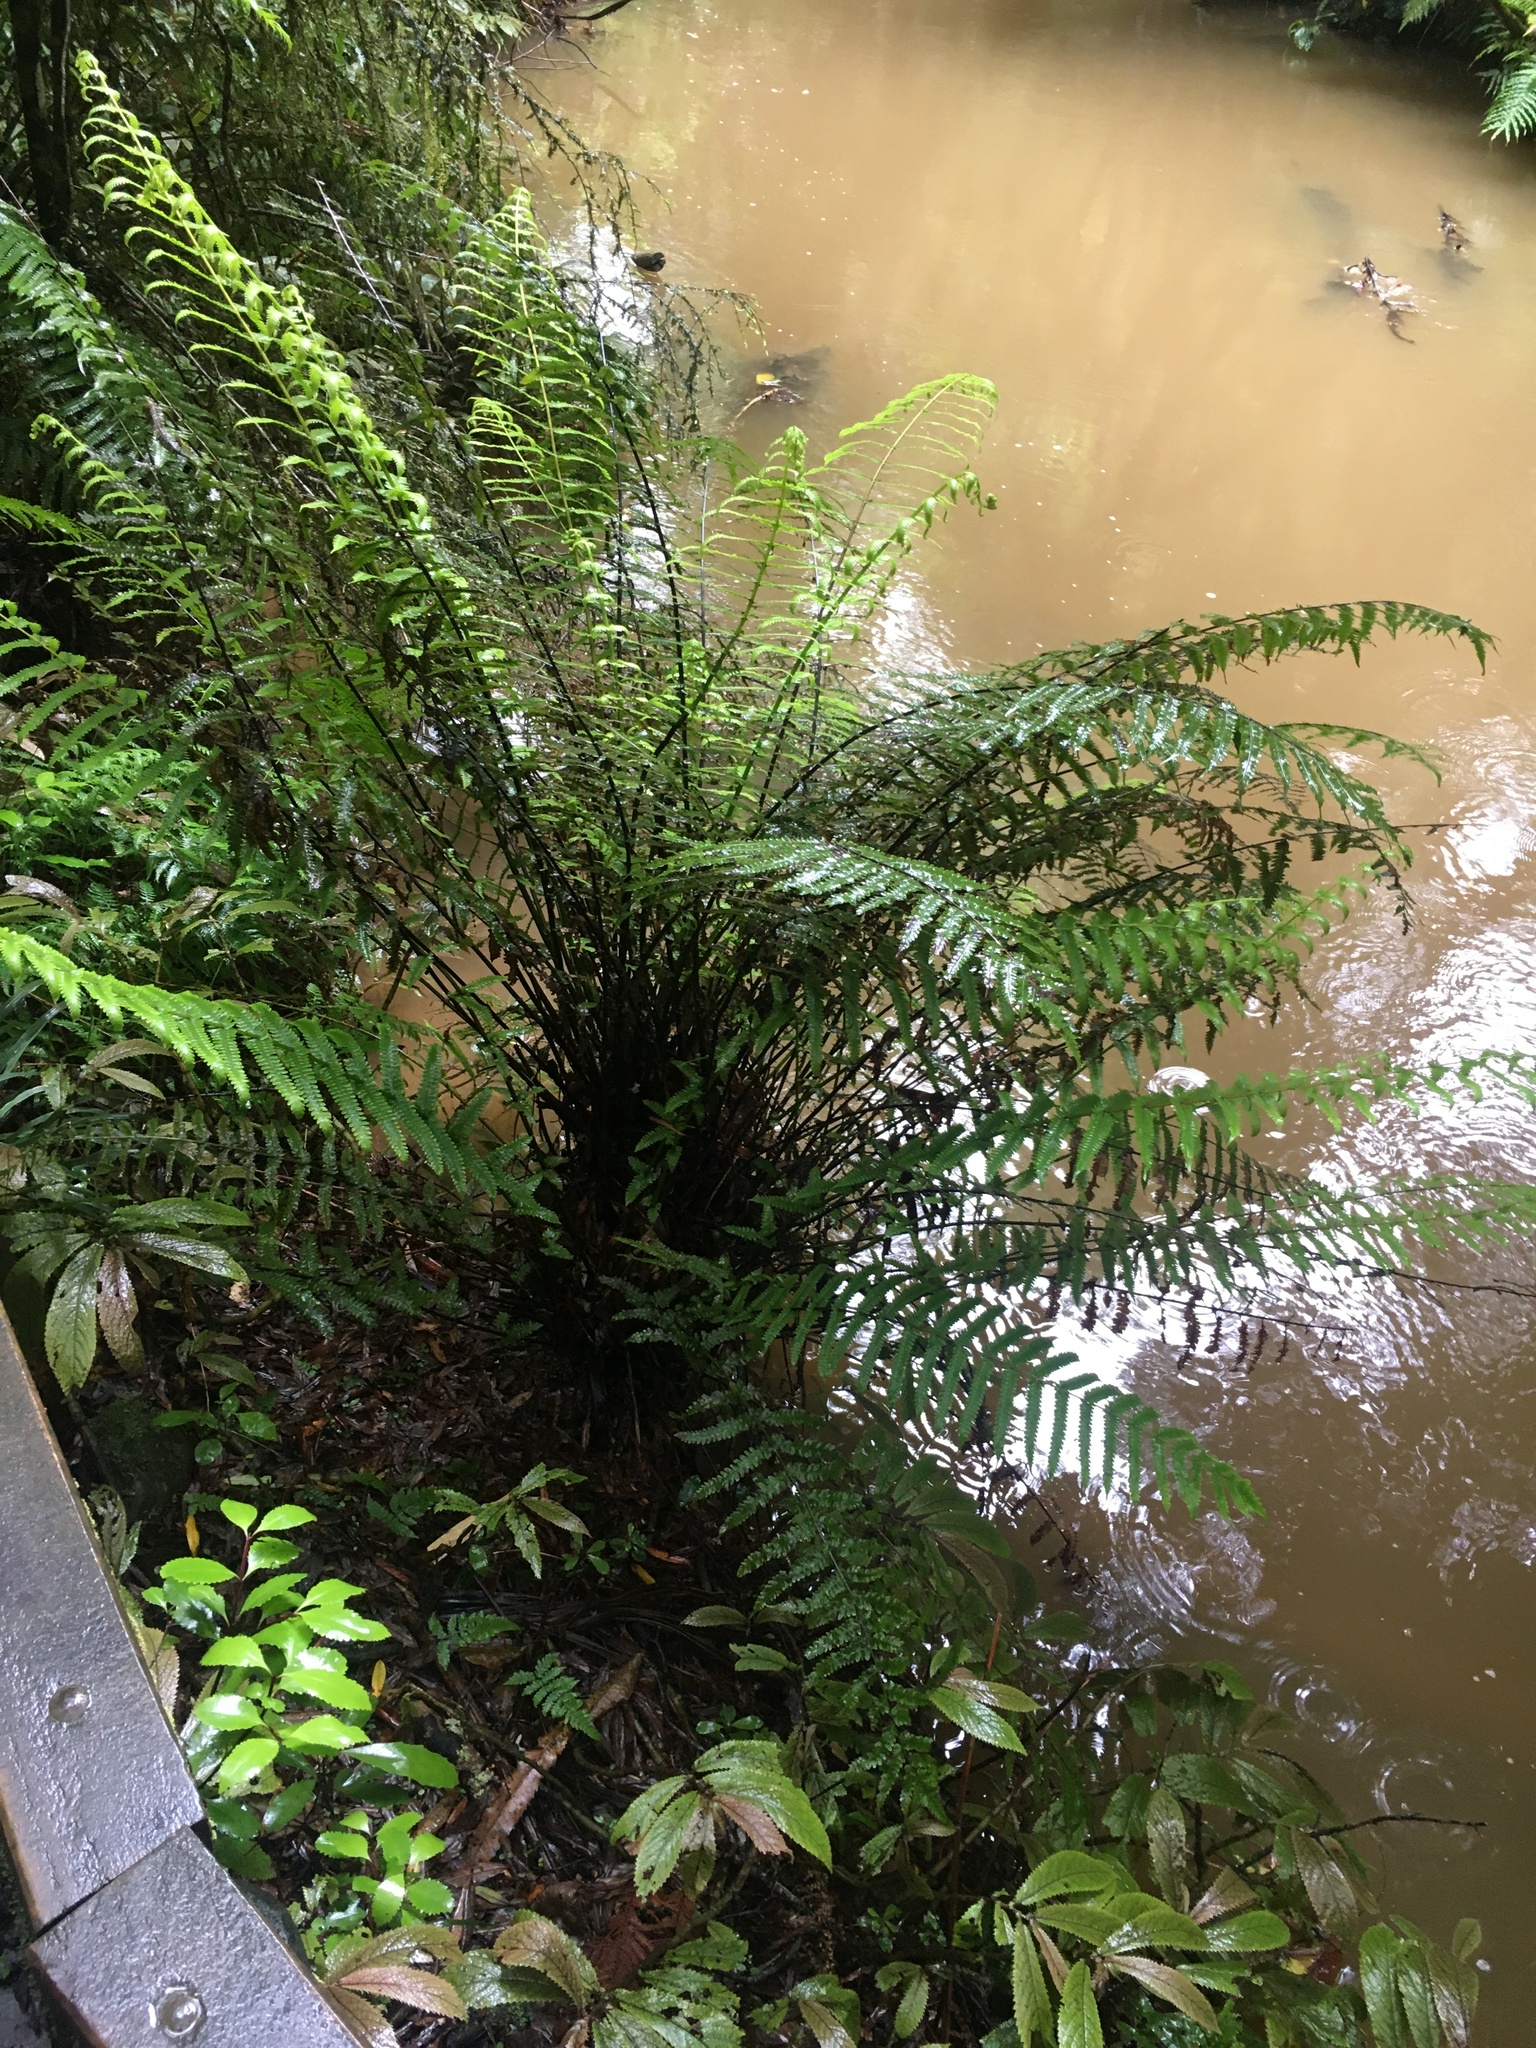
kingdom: Plantae
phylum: Tracheophyta
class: Polypodiopsida
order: Polypodiales
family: Thelypteridaceae
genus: Pakau
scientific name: Pakau pennigera
